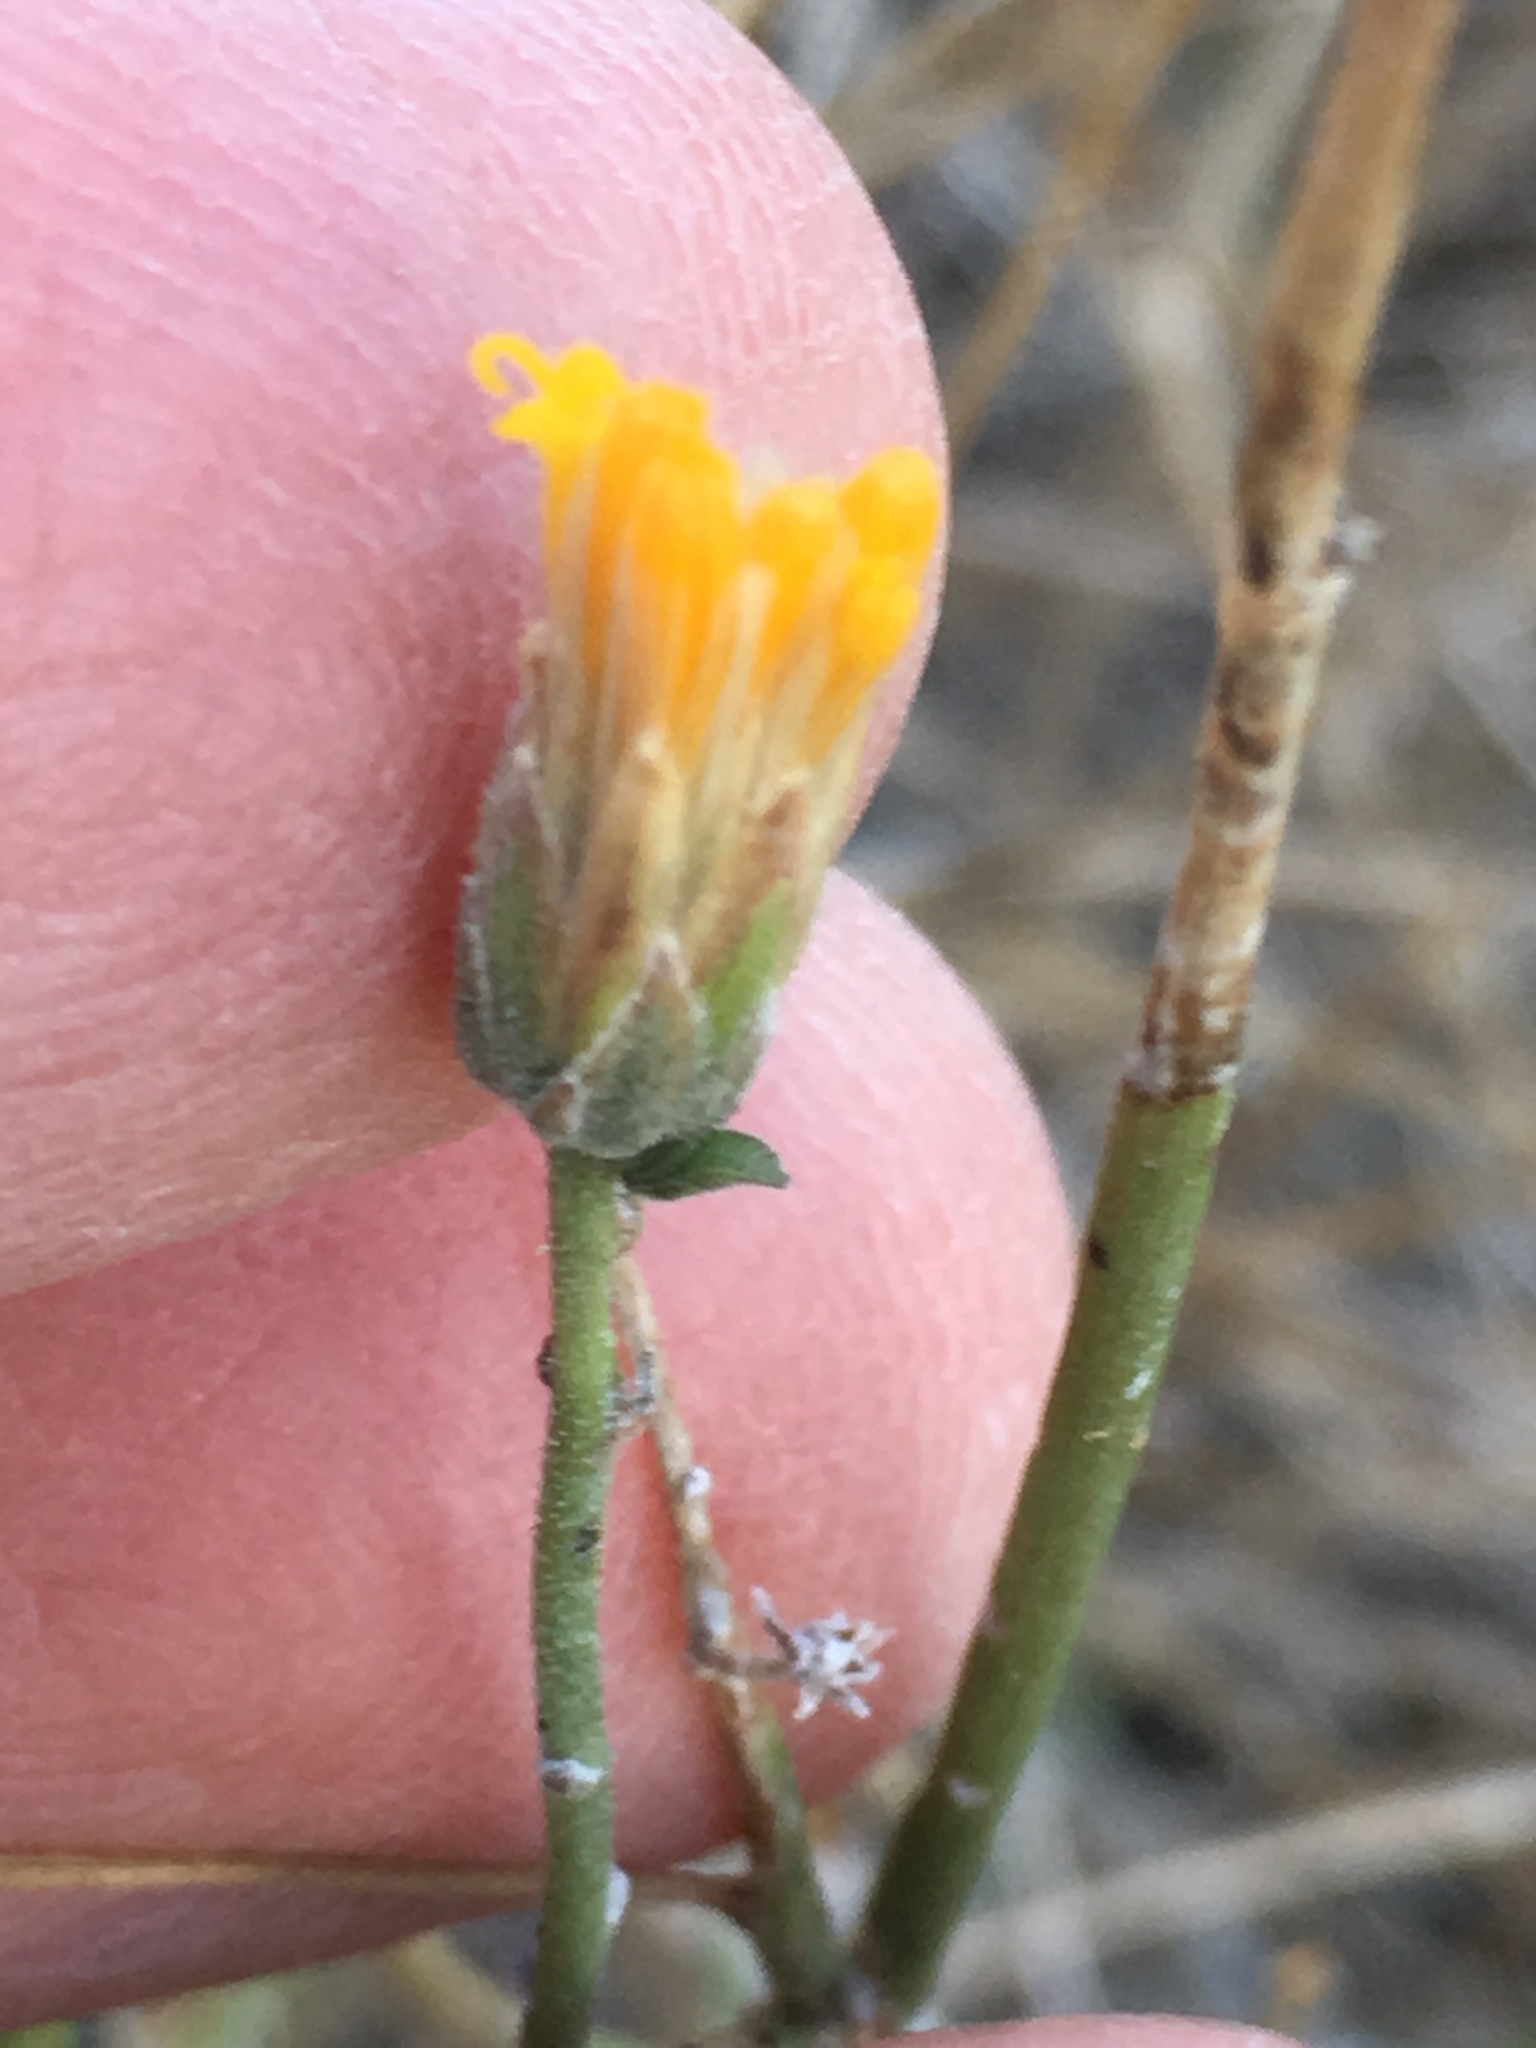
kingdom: Plantae
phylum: Tracheophyta
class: Magnoliopsida
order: Asterales
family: Asteraceae
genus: Bebbia
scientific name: Bebbia juncea
